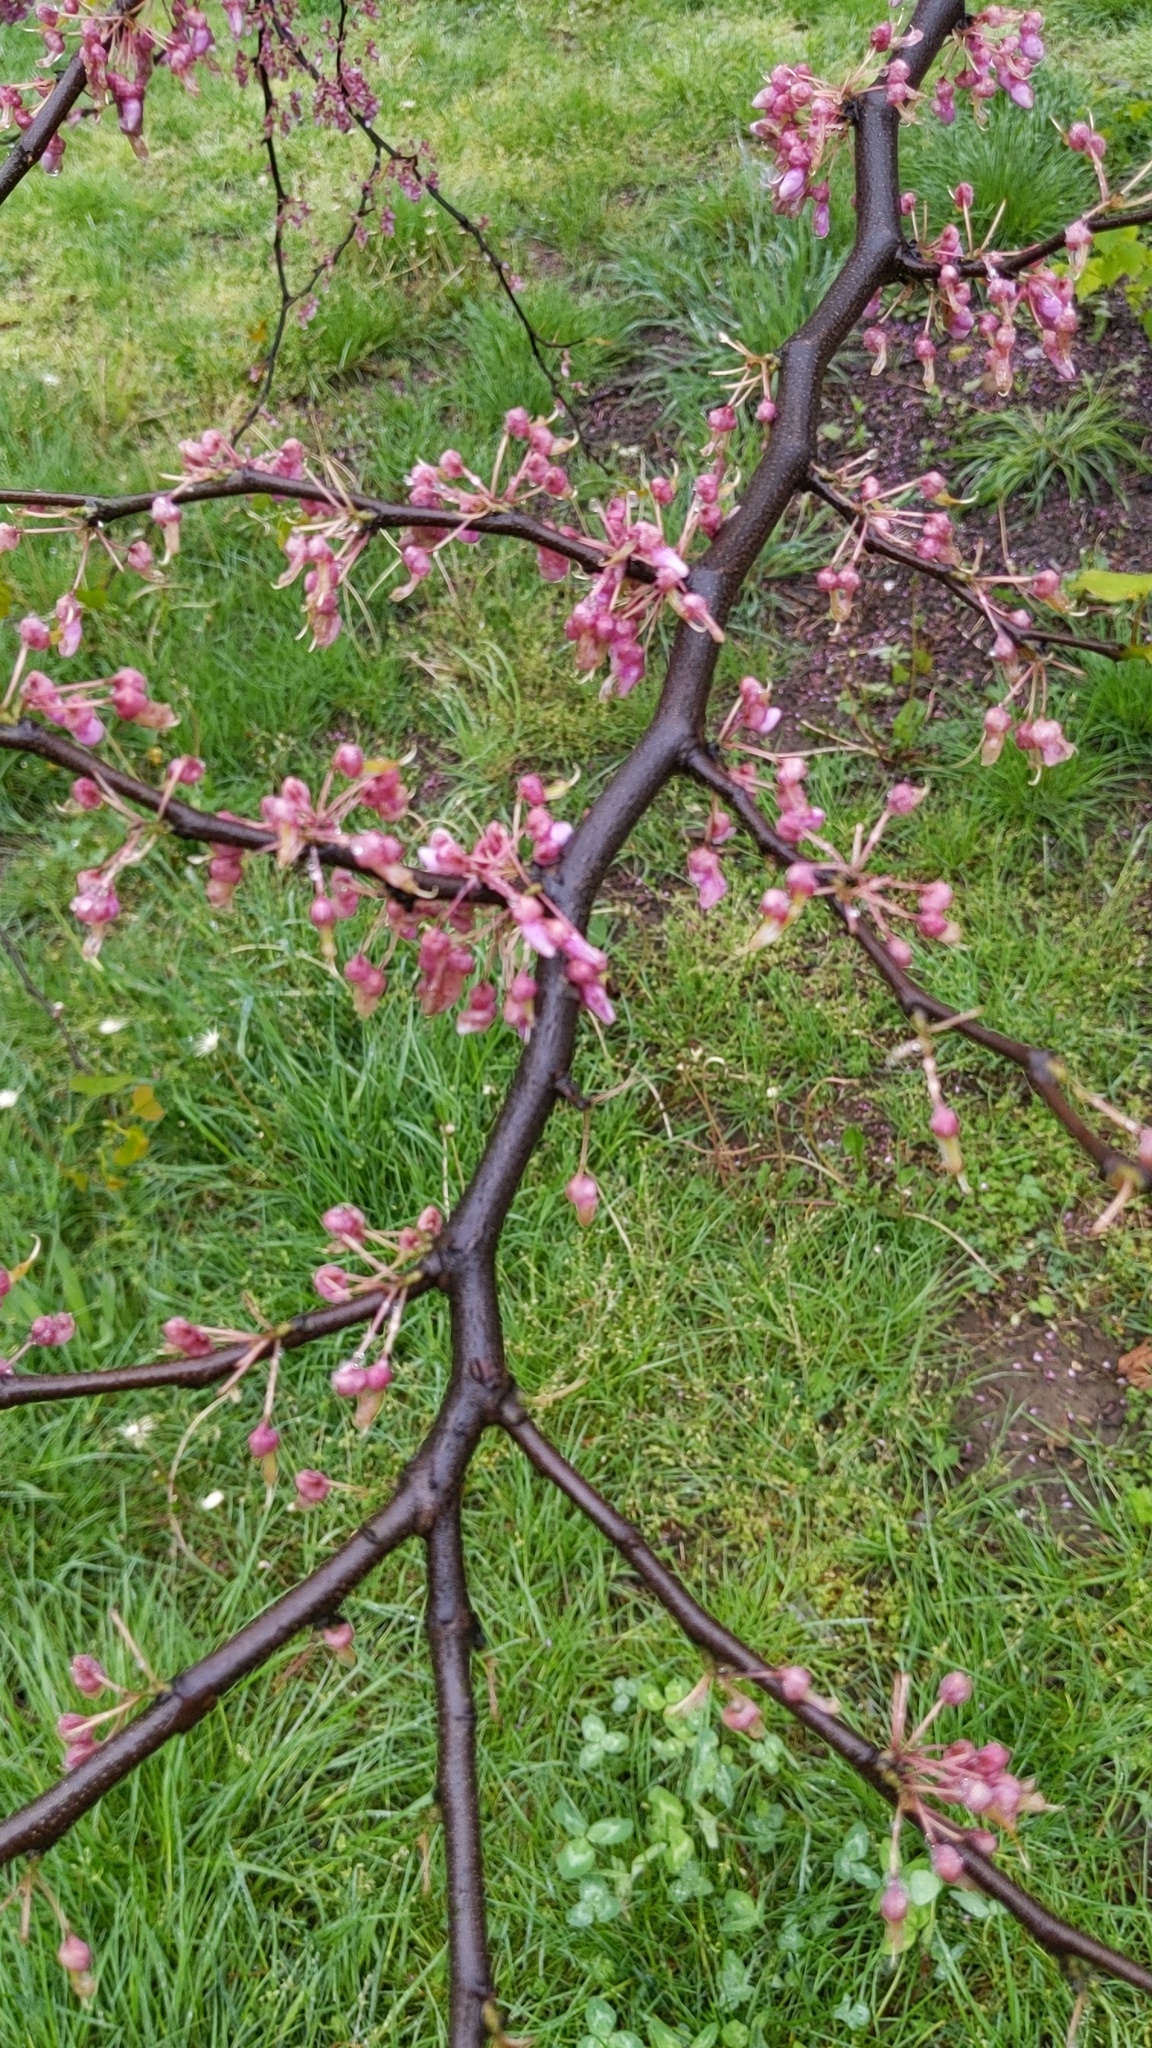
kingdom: Plantae
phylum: Tracheophyta
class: Magnoliopsida
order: Fabales
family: Fabaceae
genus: Cercis
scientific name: Cercis canadensis
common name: Eastern redbud
